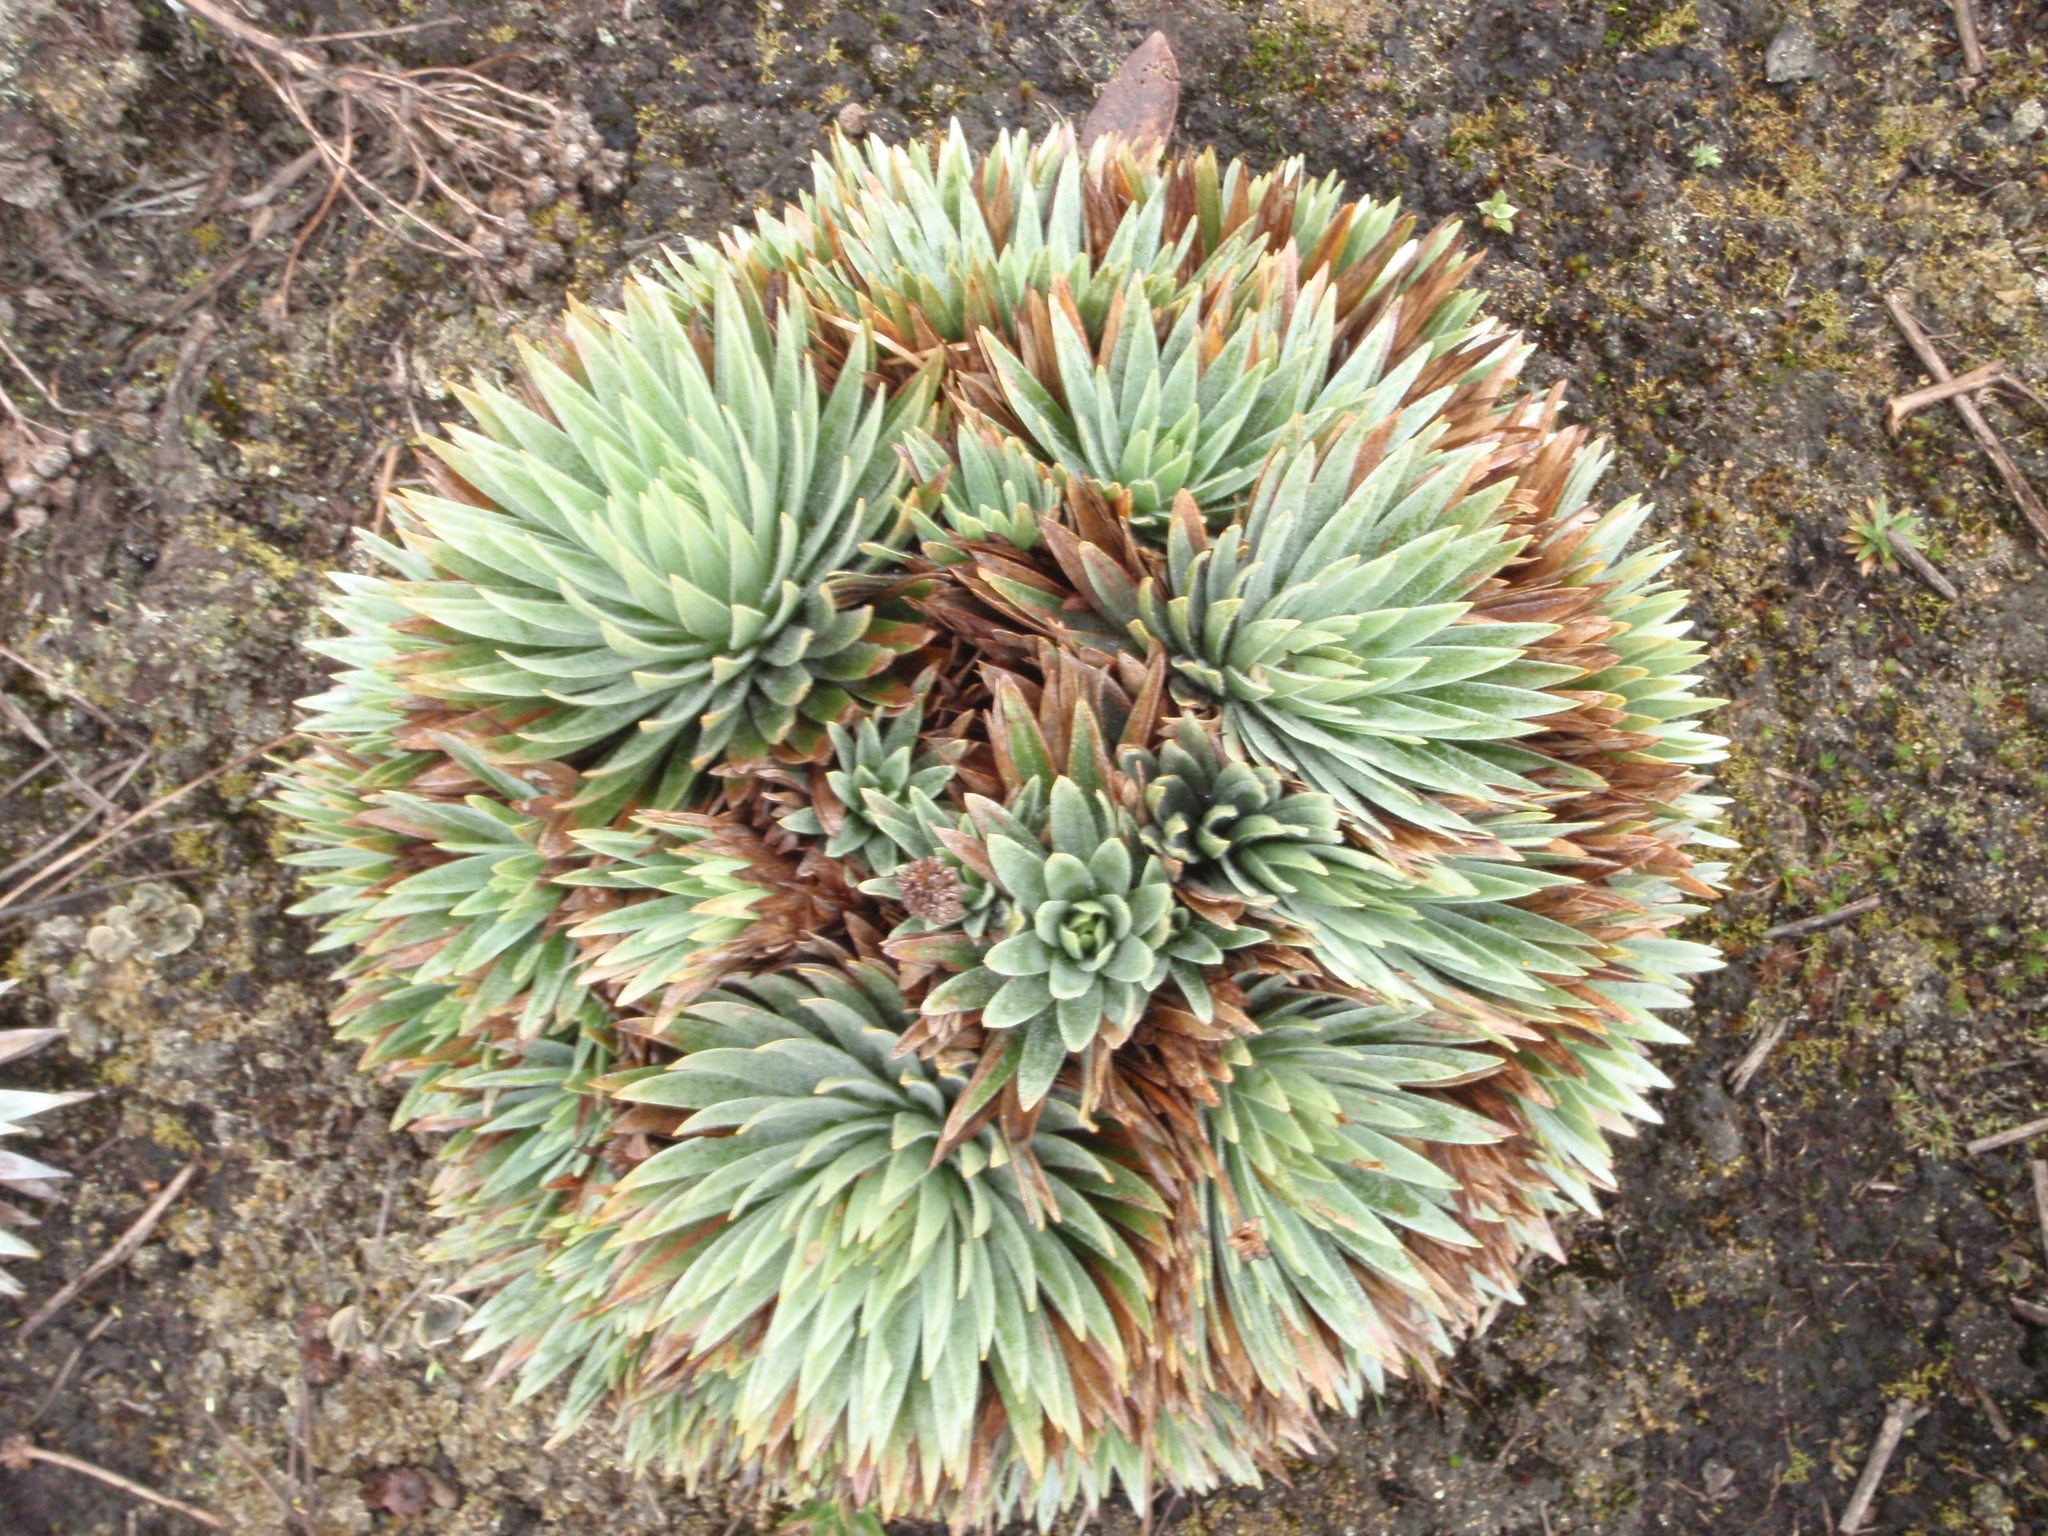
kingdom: Plantae
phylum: Tracheophyta
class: Liliopsida
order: Poales
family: Eriocaulaceae
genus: Paepalanthus
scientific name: Paepalanthus alpinus
